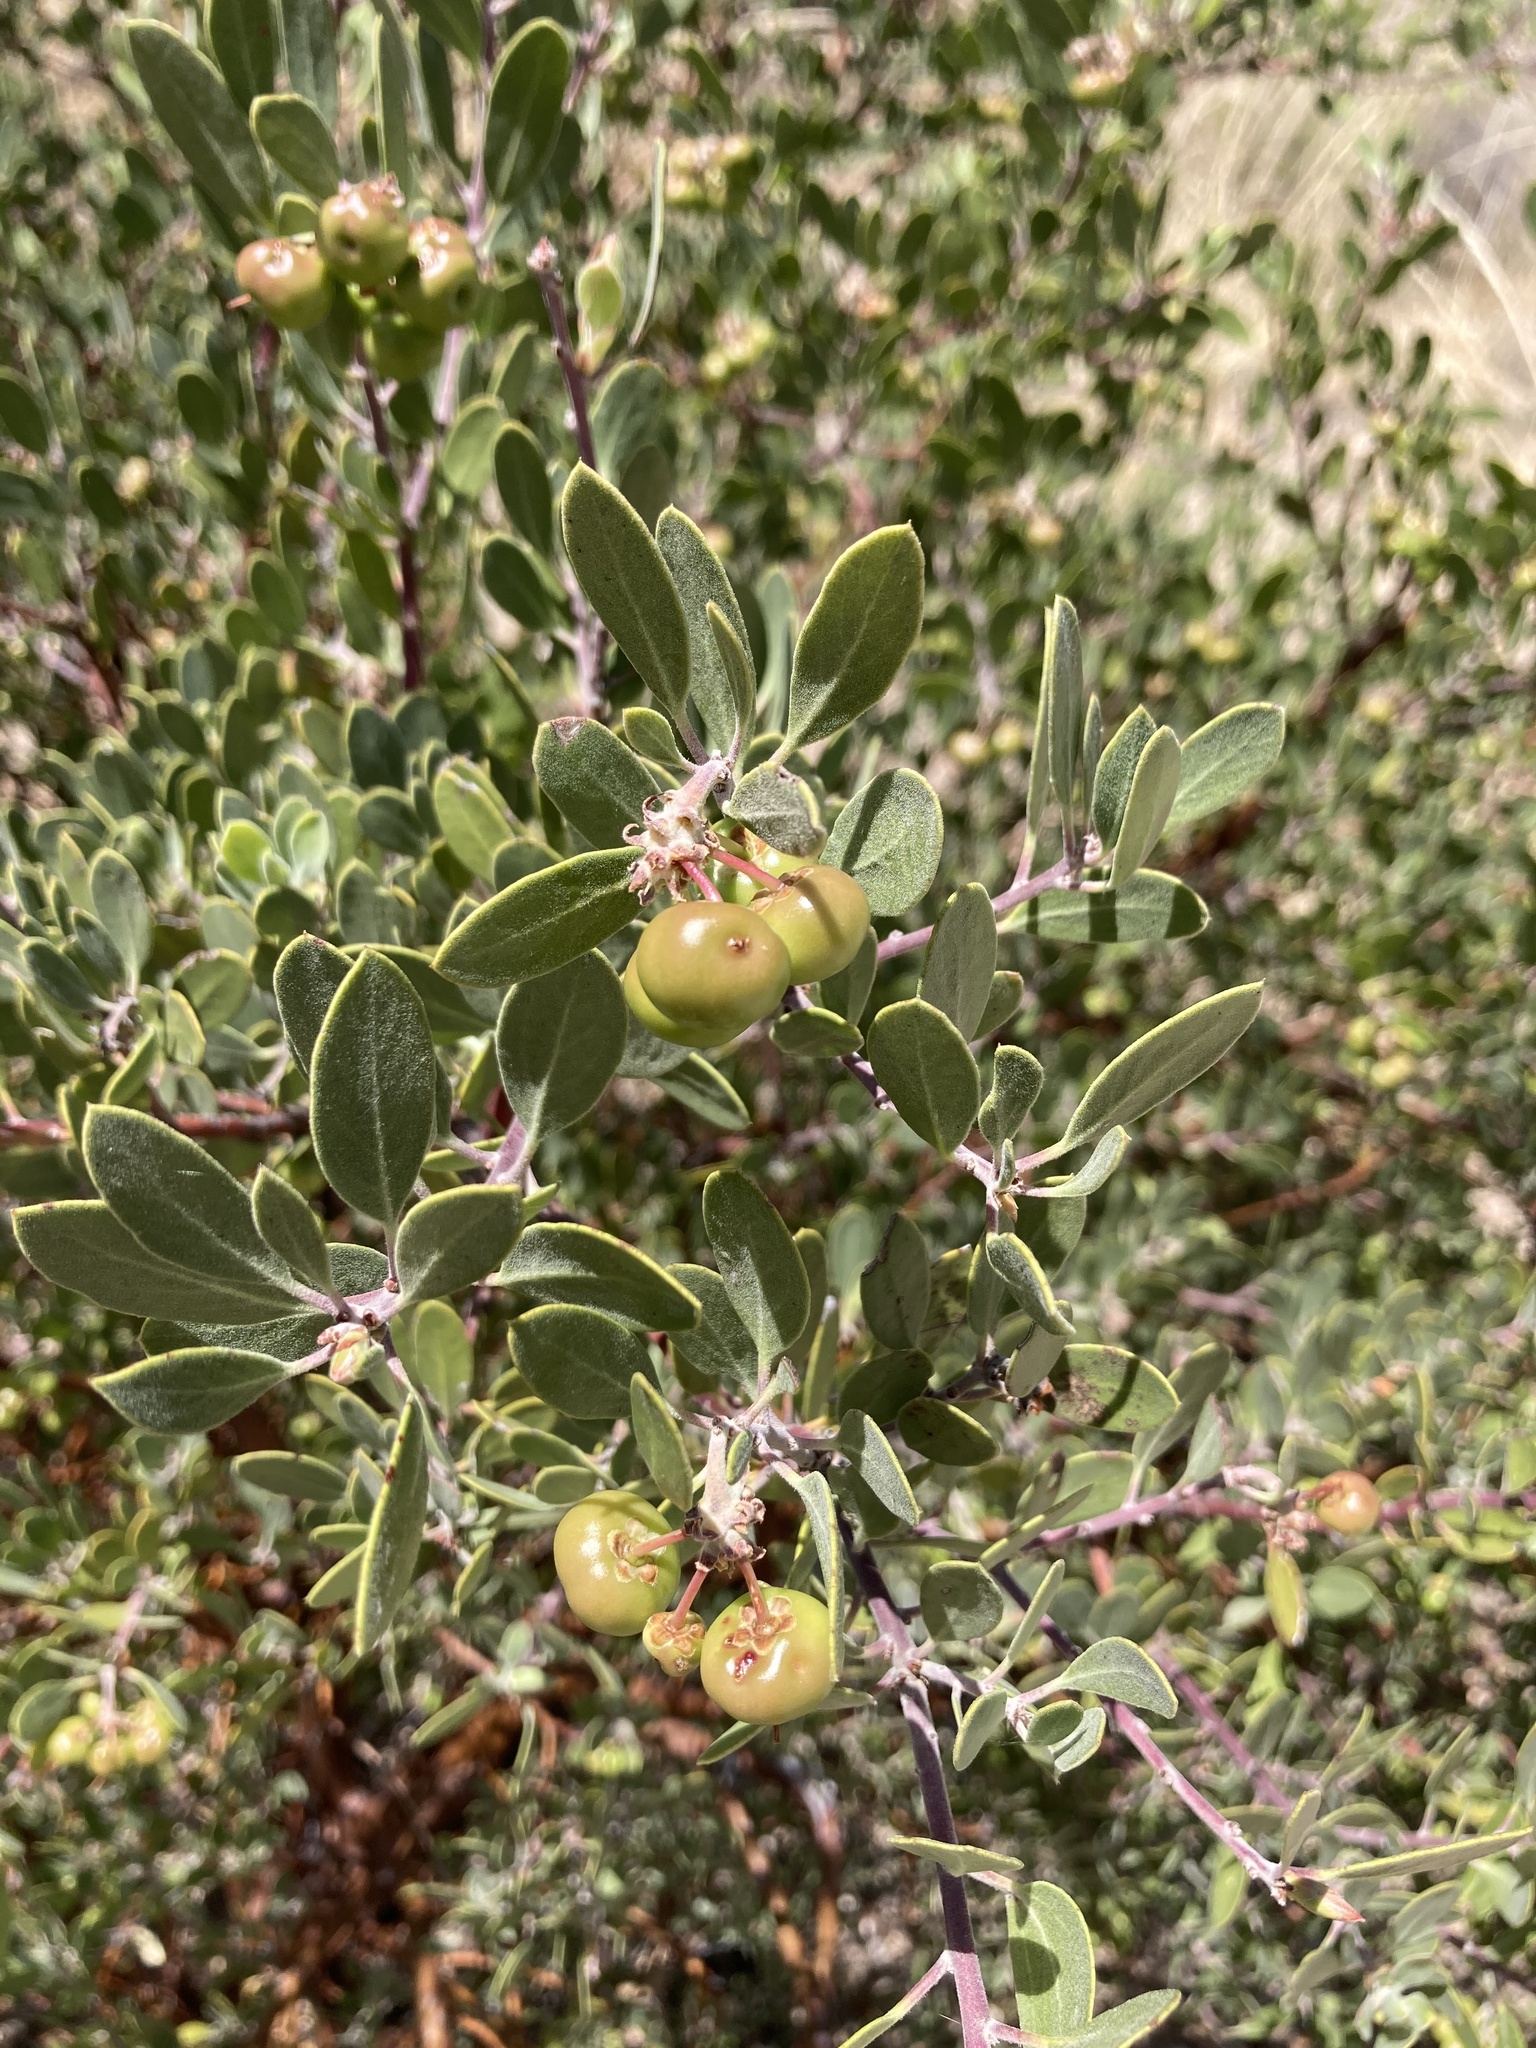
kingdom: Plantae
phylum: Tracheophyta
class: Magnoliopsida
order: Ericales
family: Ericaceae
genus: Arctostaphylos
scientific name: Arctostaphylos pungens
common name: Mexican manzanita
